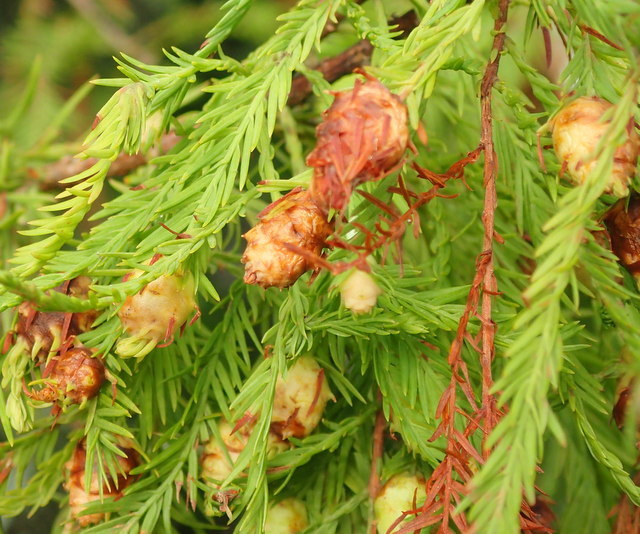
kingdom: Animalia
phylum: Arthropoda
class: Insecta
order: Diptera
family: Cecidomyiidae
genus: Taxodiomyia
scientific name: Taxodiomyia cupressiananassa
